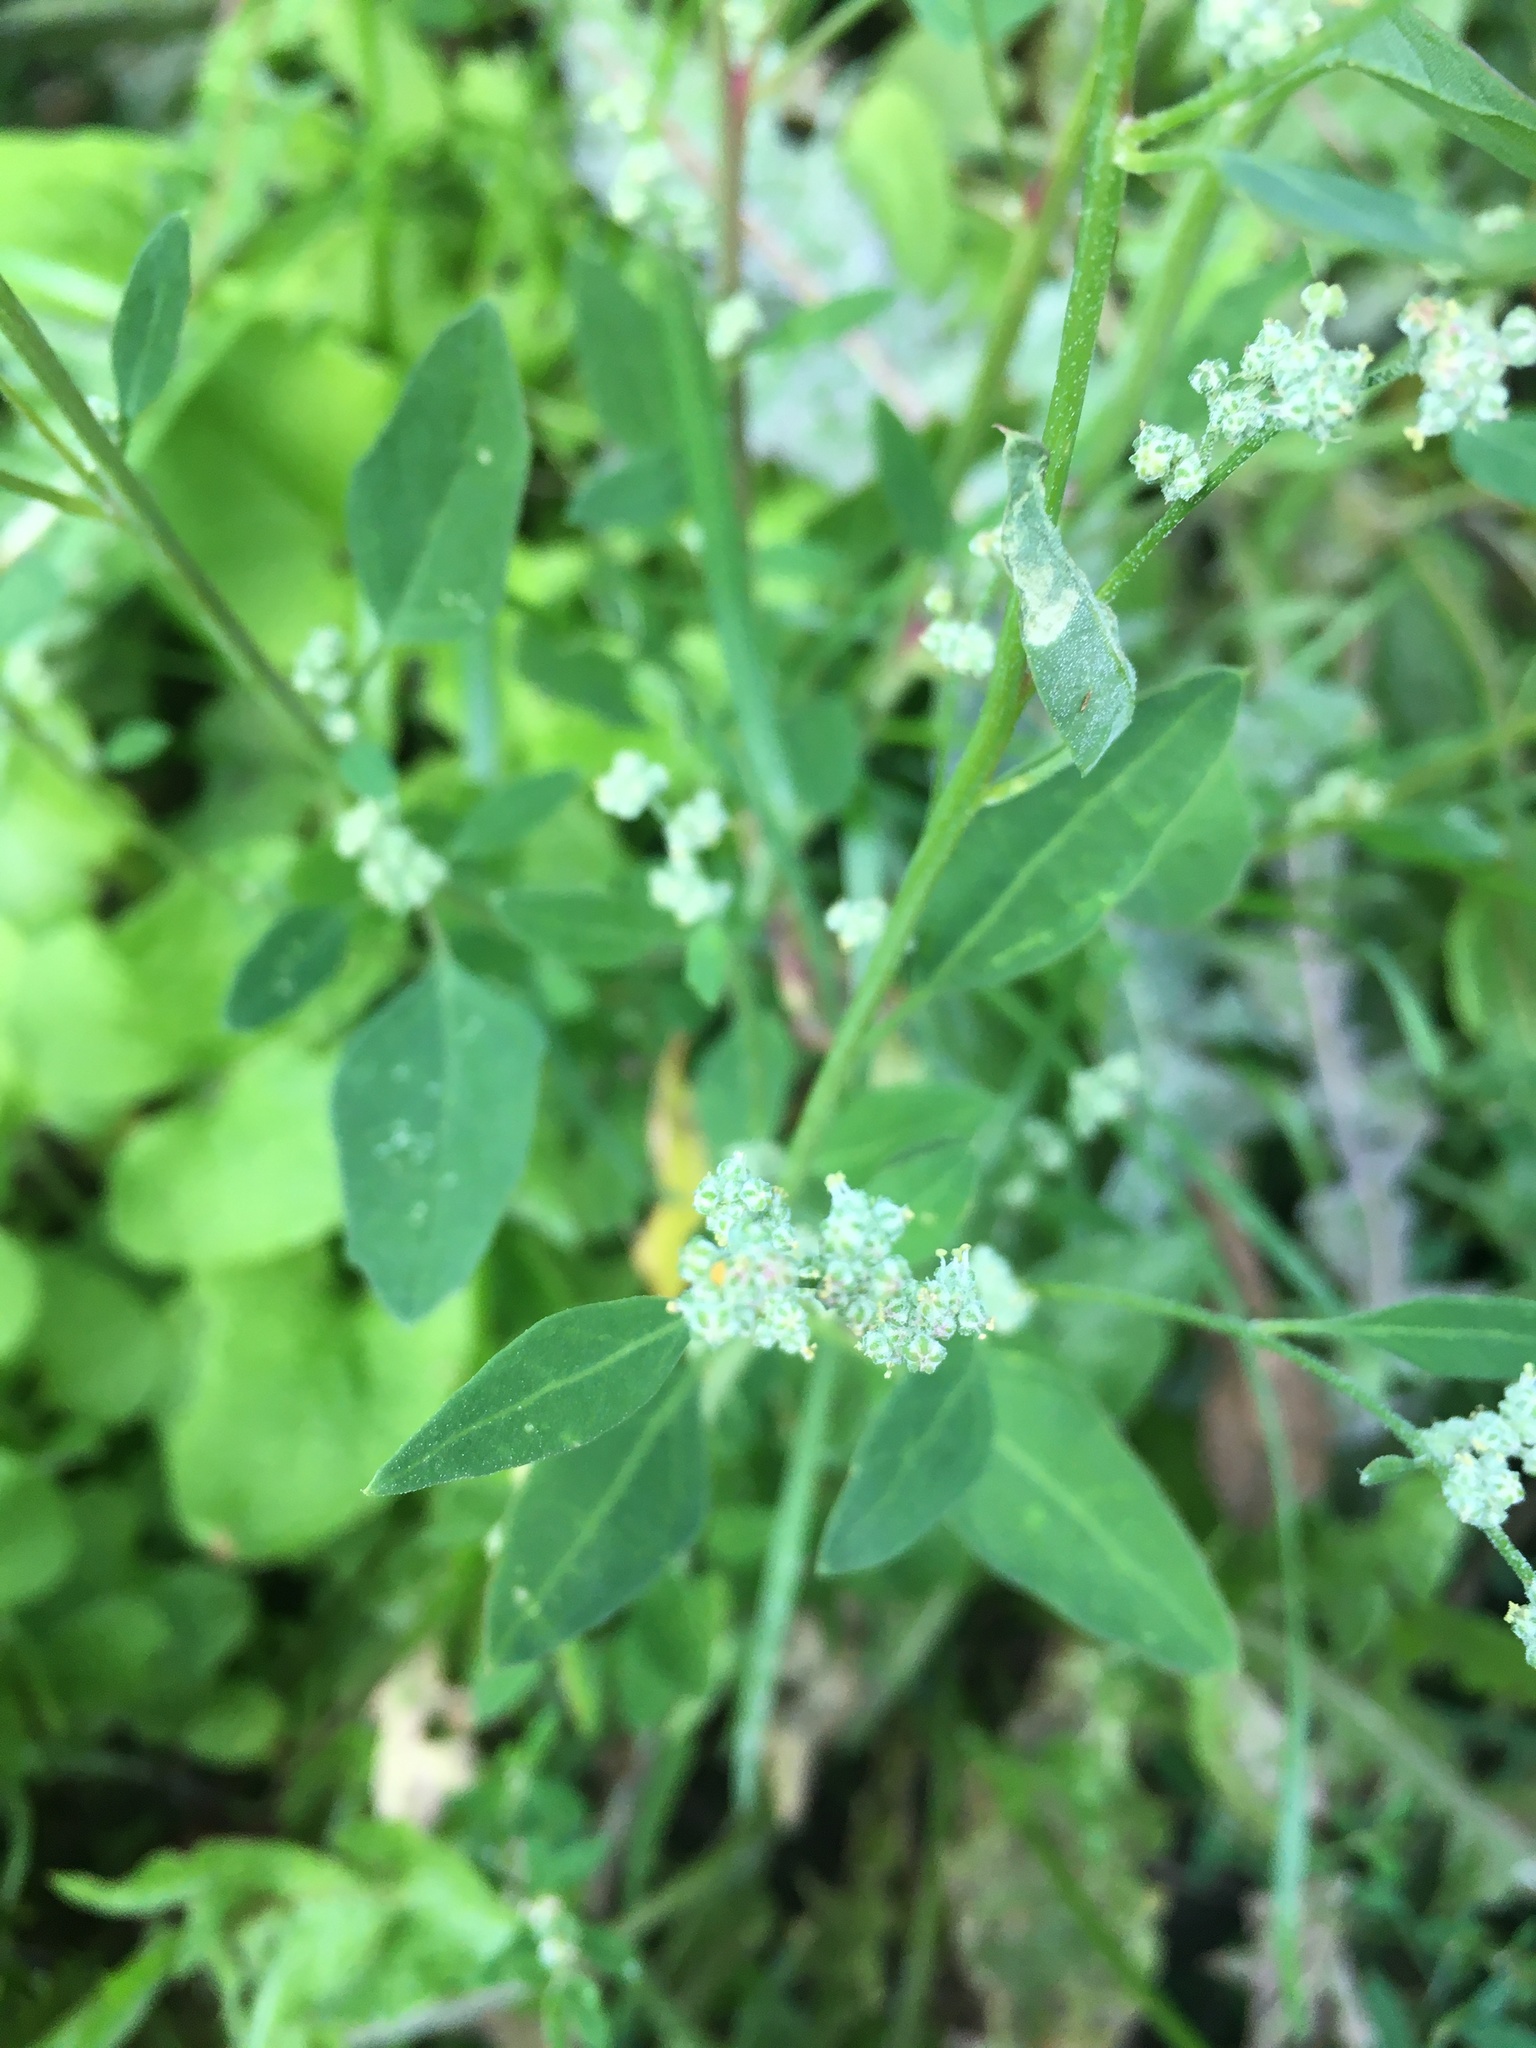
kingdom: Plantae
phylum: Tracheophyta
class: Magnoliopsida
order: Caryophyllales
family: Amaranthaceae
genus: Chenopodium
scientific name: Chenopodium album
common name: Fat-hen
